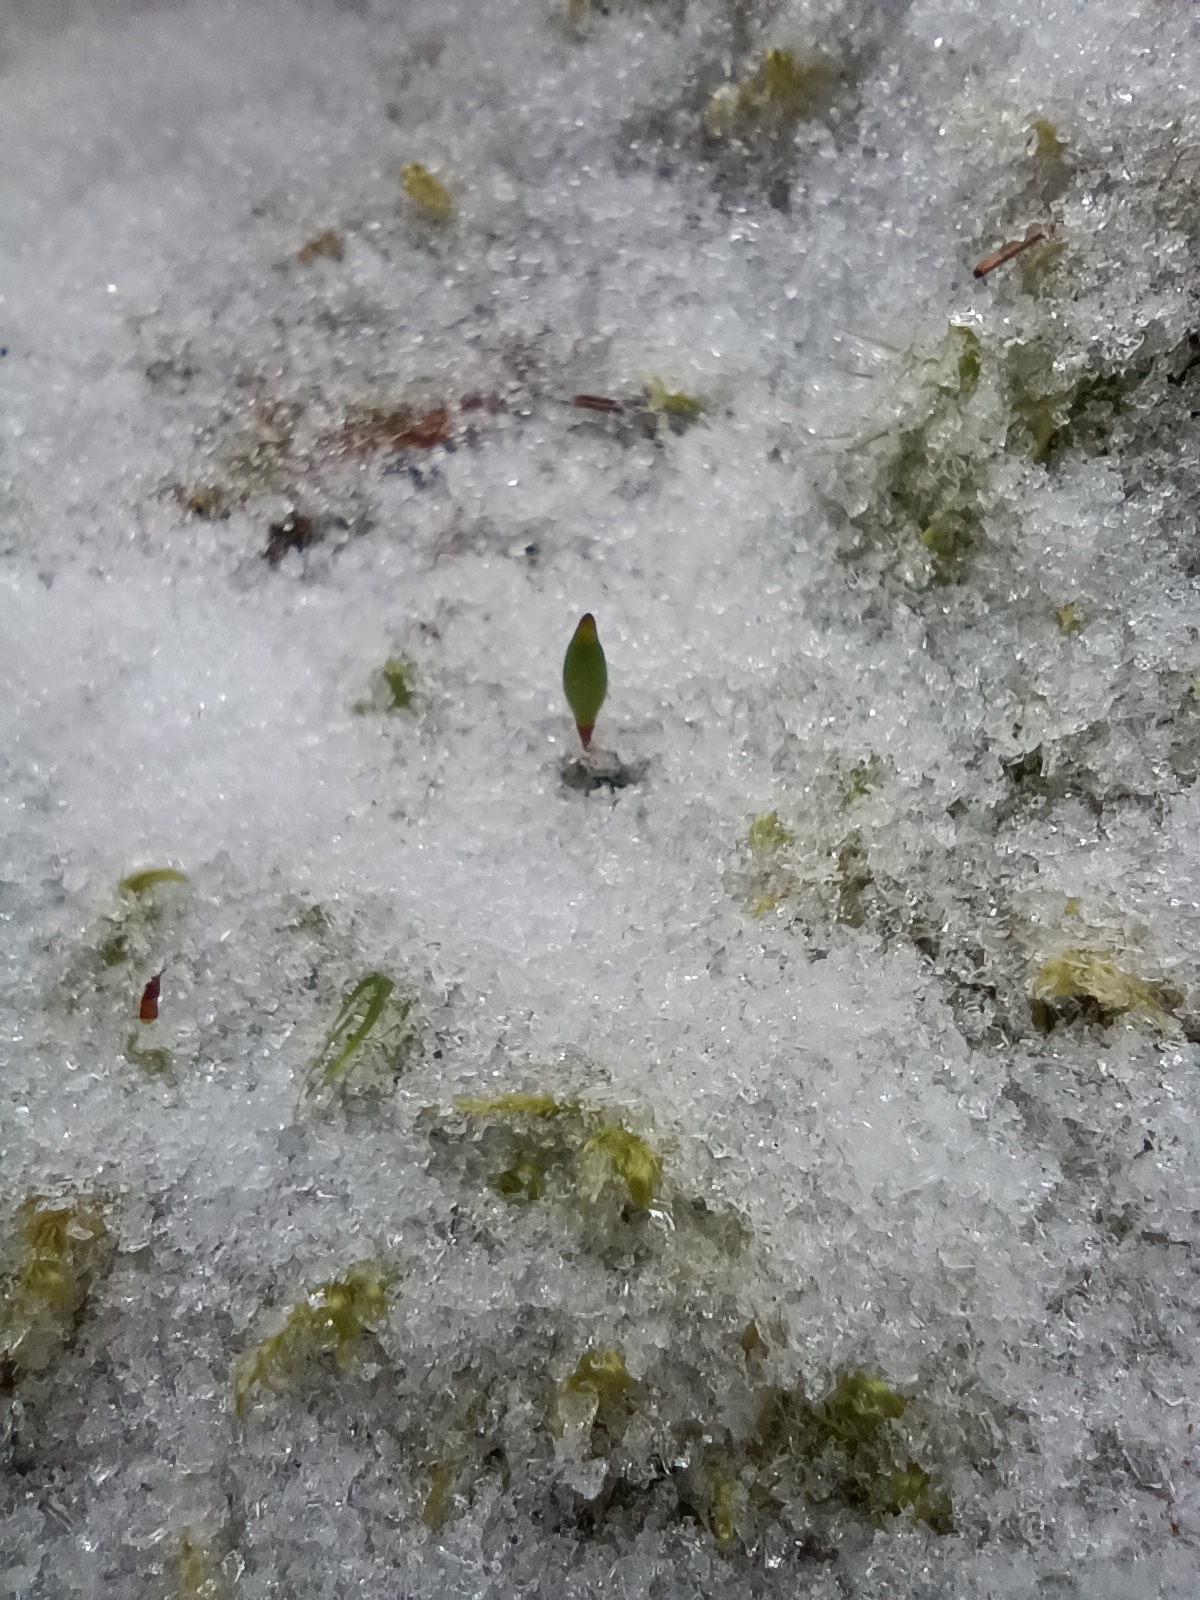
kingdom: Plantae
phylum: Bryophyta
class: Bryopsida
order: Buxbaumiales
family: Buxbaumiaceae
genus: Buxbaumia
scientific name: Buxbaumia viridis
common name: Green shield-moss
